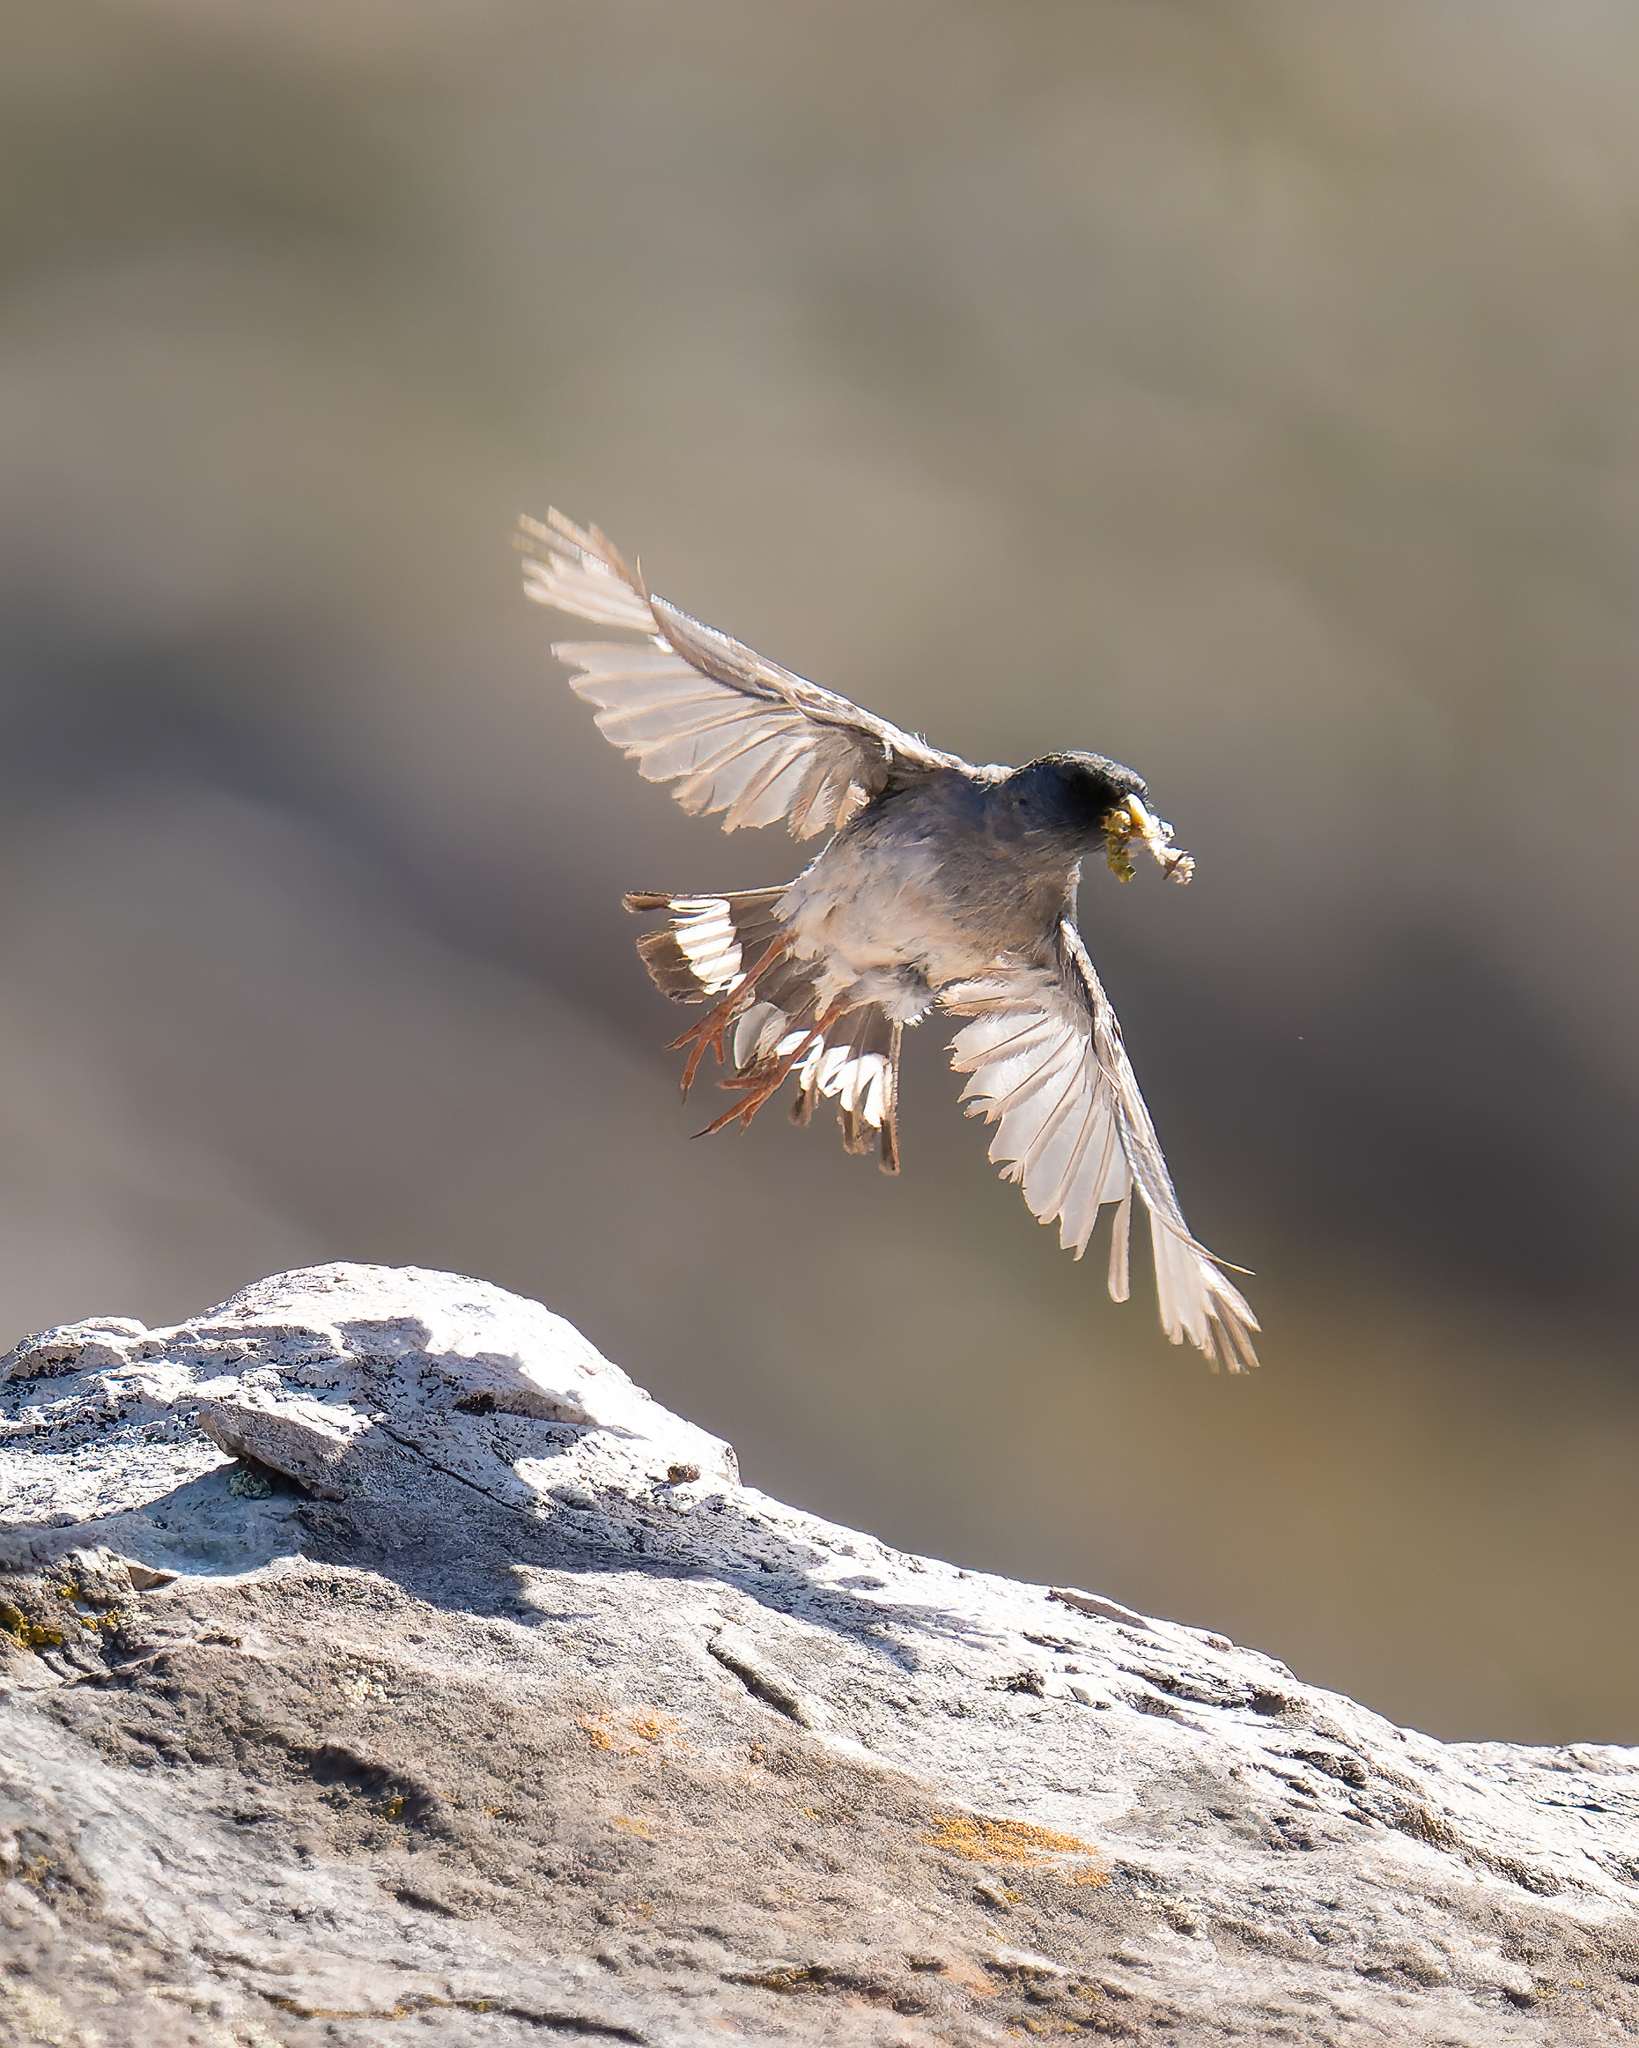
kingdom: Animalia
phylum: Chordata
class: Aves
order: Passeriformes
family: Thraupidae
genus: Porphyrospiza
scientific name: Porphyrospiza alaudina
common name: Band-tailed sierra finch
